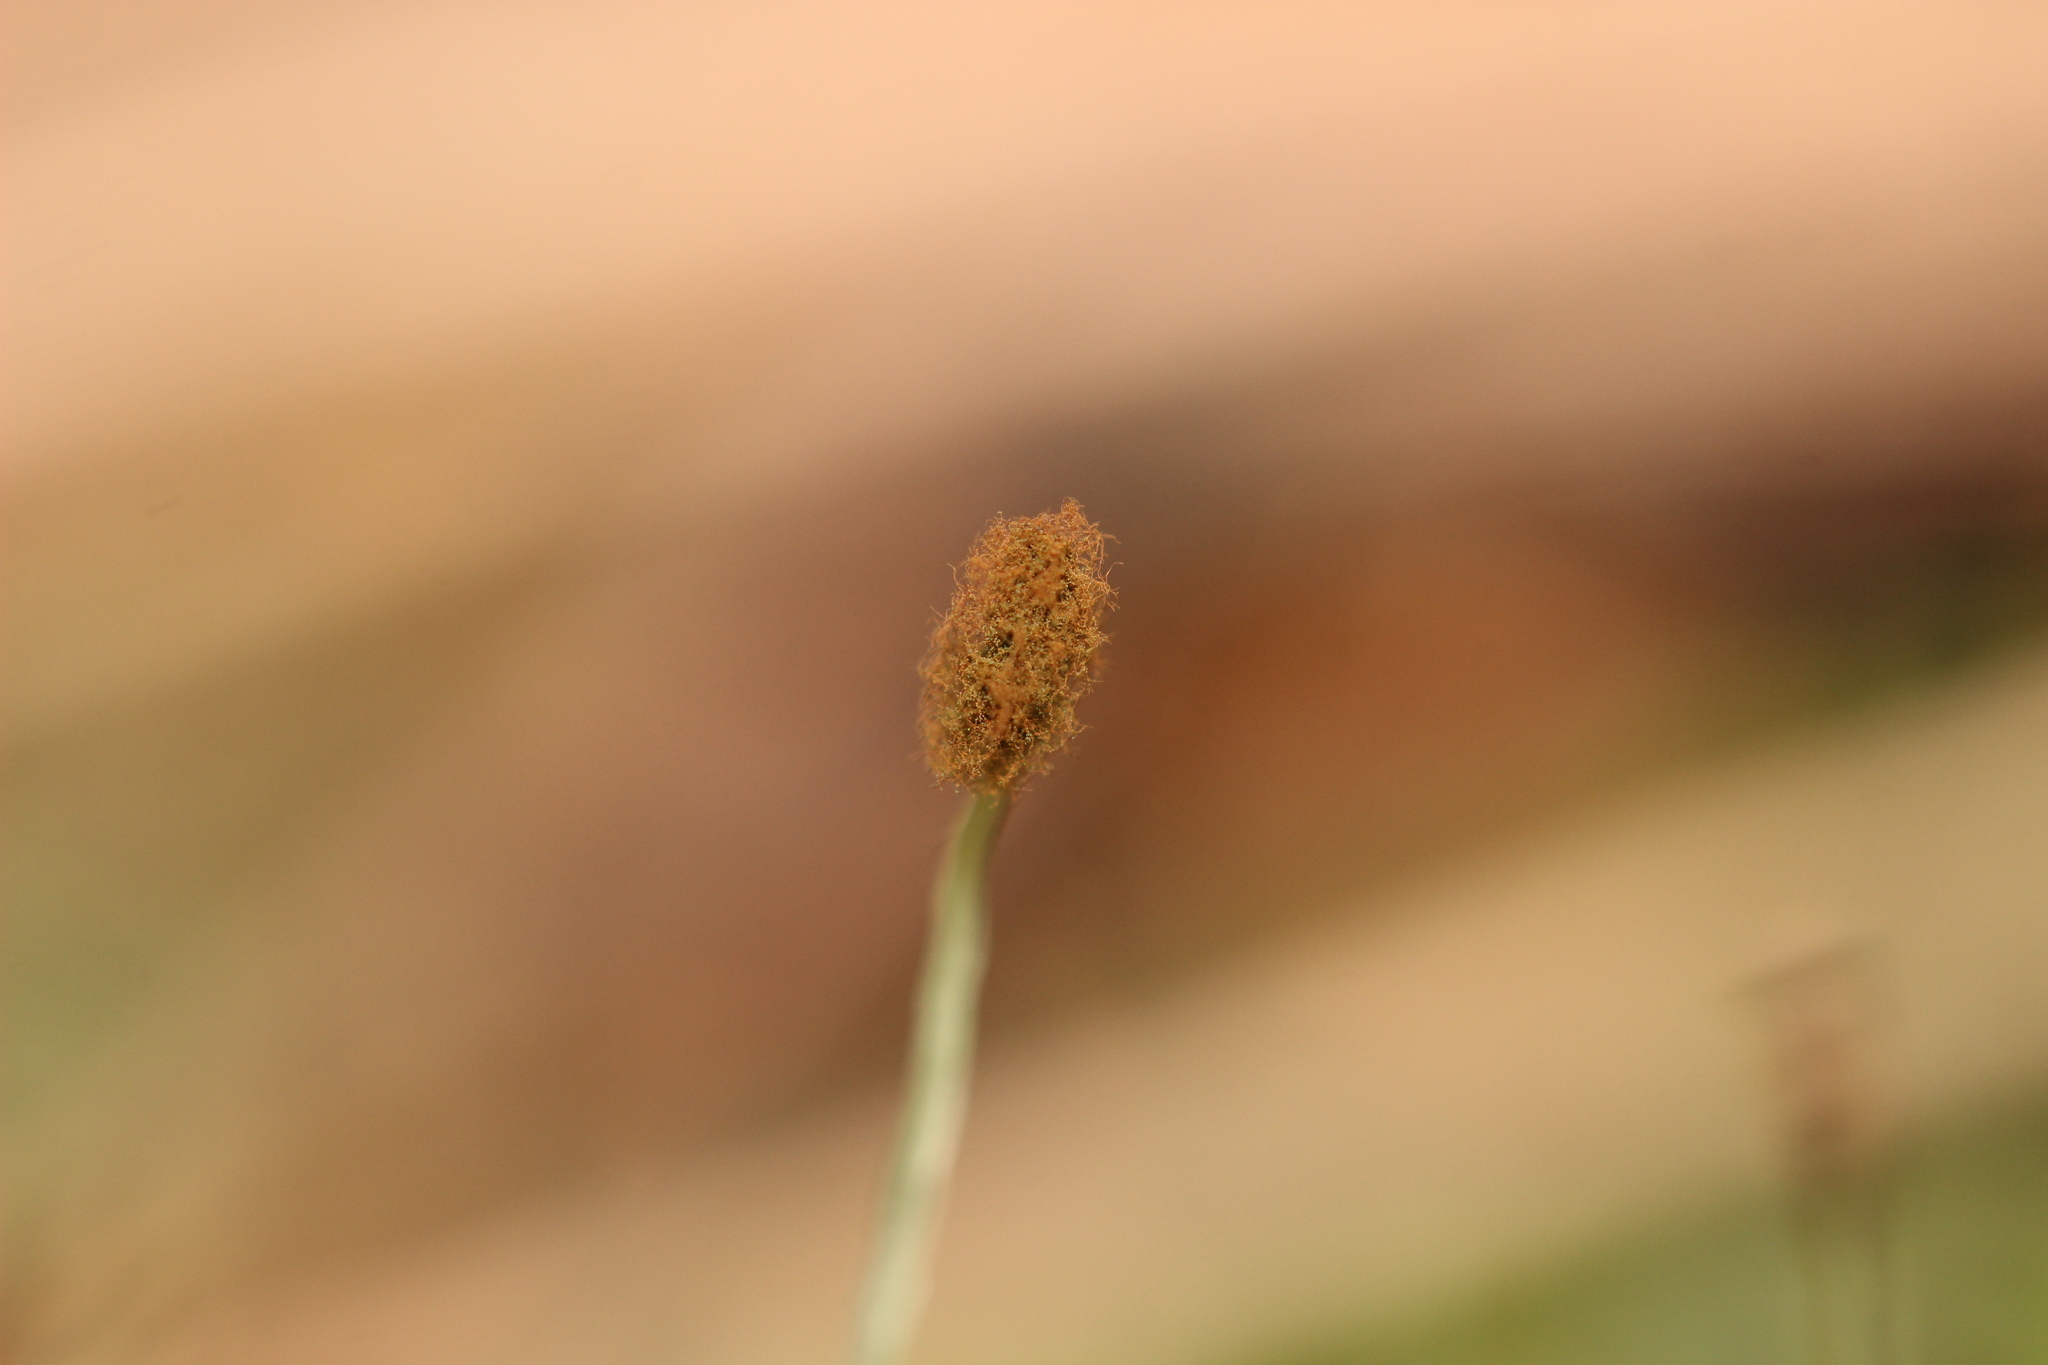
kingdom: Plantae
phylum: Marchantiophyta
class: Jungermanniopsida
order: Pallaviciniales
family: Pallaviciniaceae
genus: Symphyogyna
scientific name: Symphyogyna subsimplex
